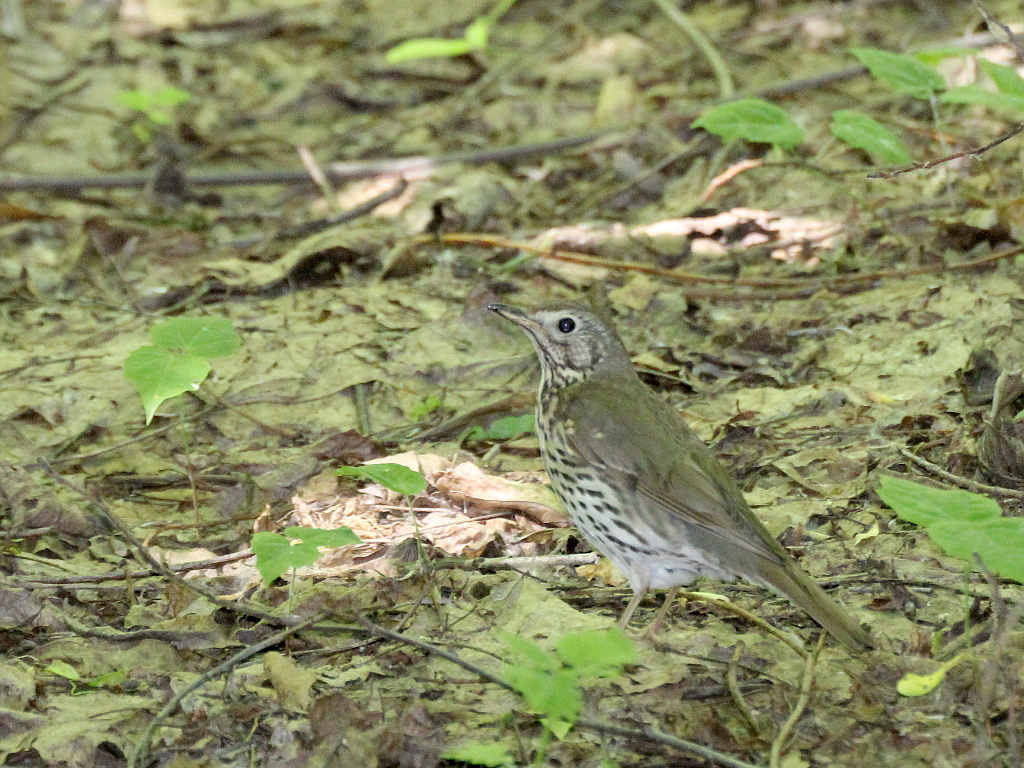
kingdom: Animalia
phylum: Chordata
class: Aves
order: Passeriformes
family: Turdidae
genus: Turdus
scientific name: Turdus philomelos
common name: Song thrush
